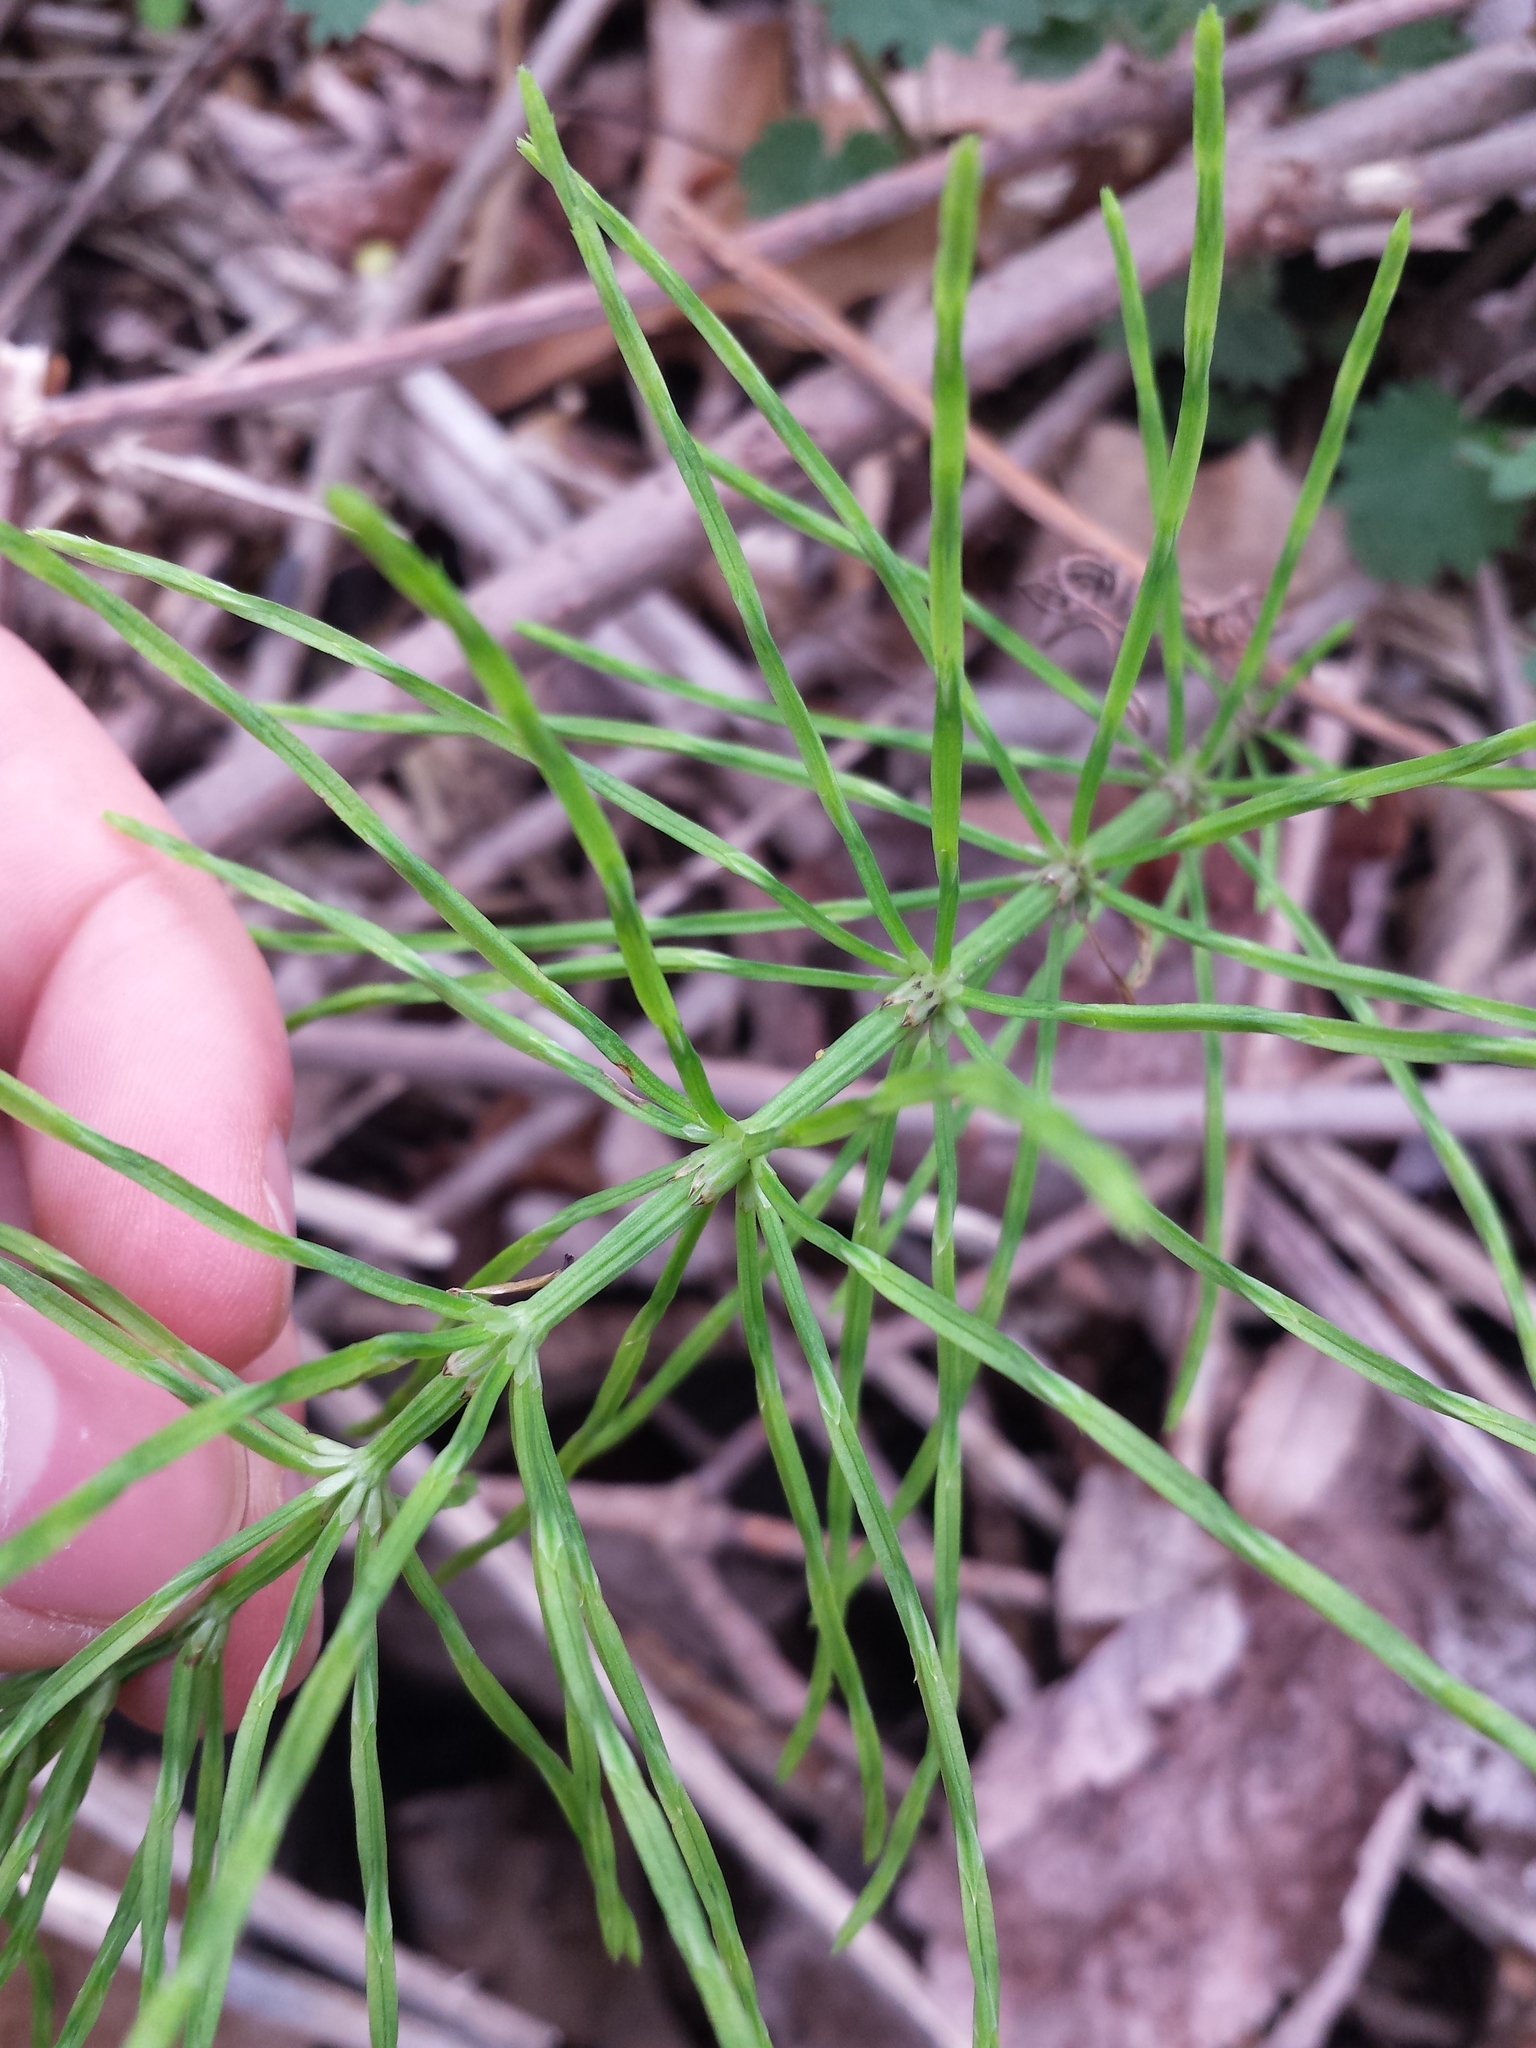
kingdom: Plantae
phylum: Tracheophyta
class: Polypodiopsida
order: Equisetales
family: Equisetaceae
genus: Equisetum
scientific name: Equisetum arvense
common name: Field horsetail
